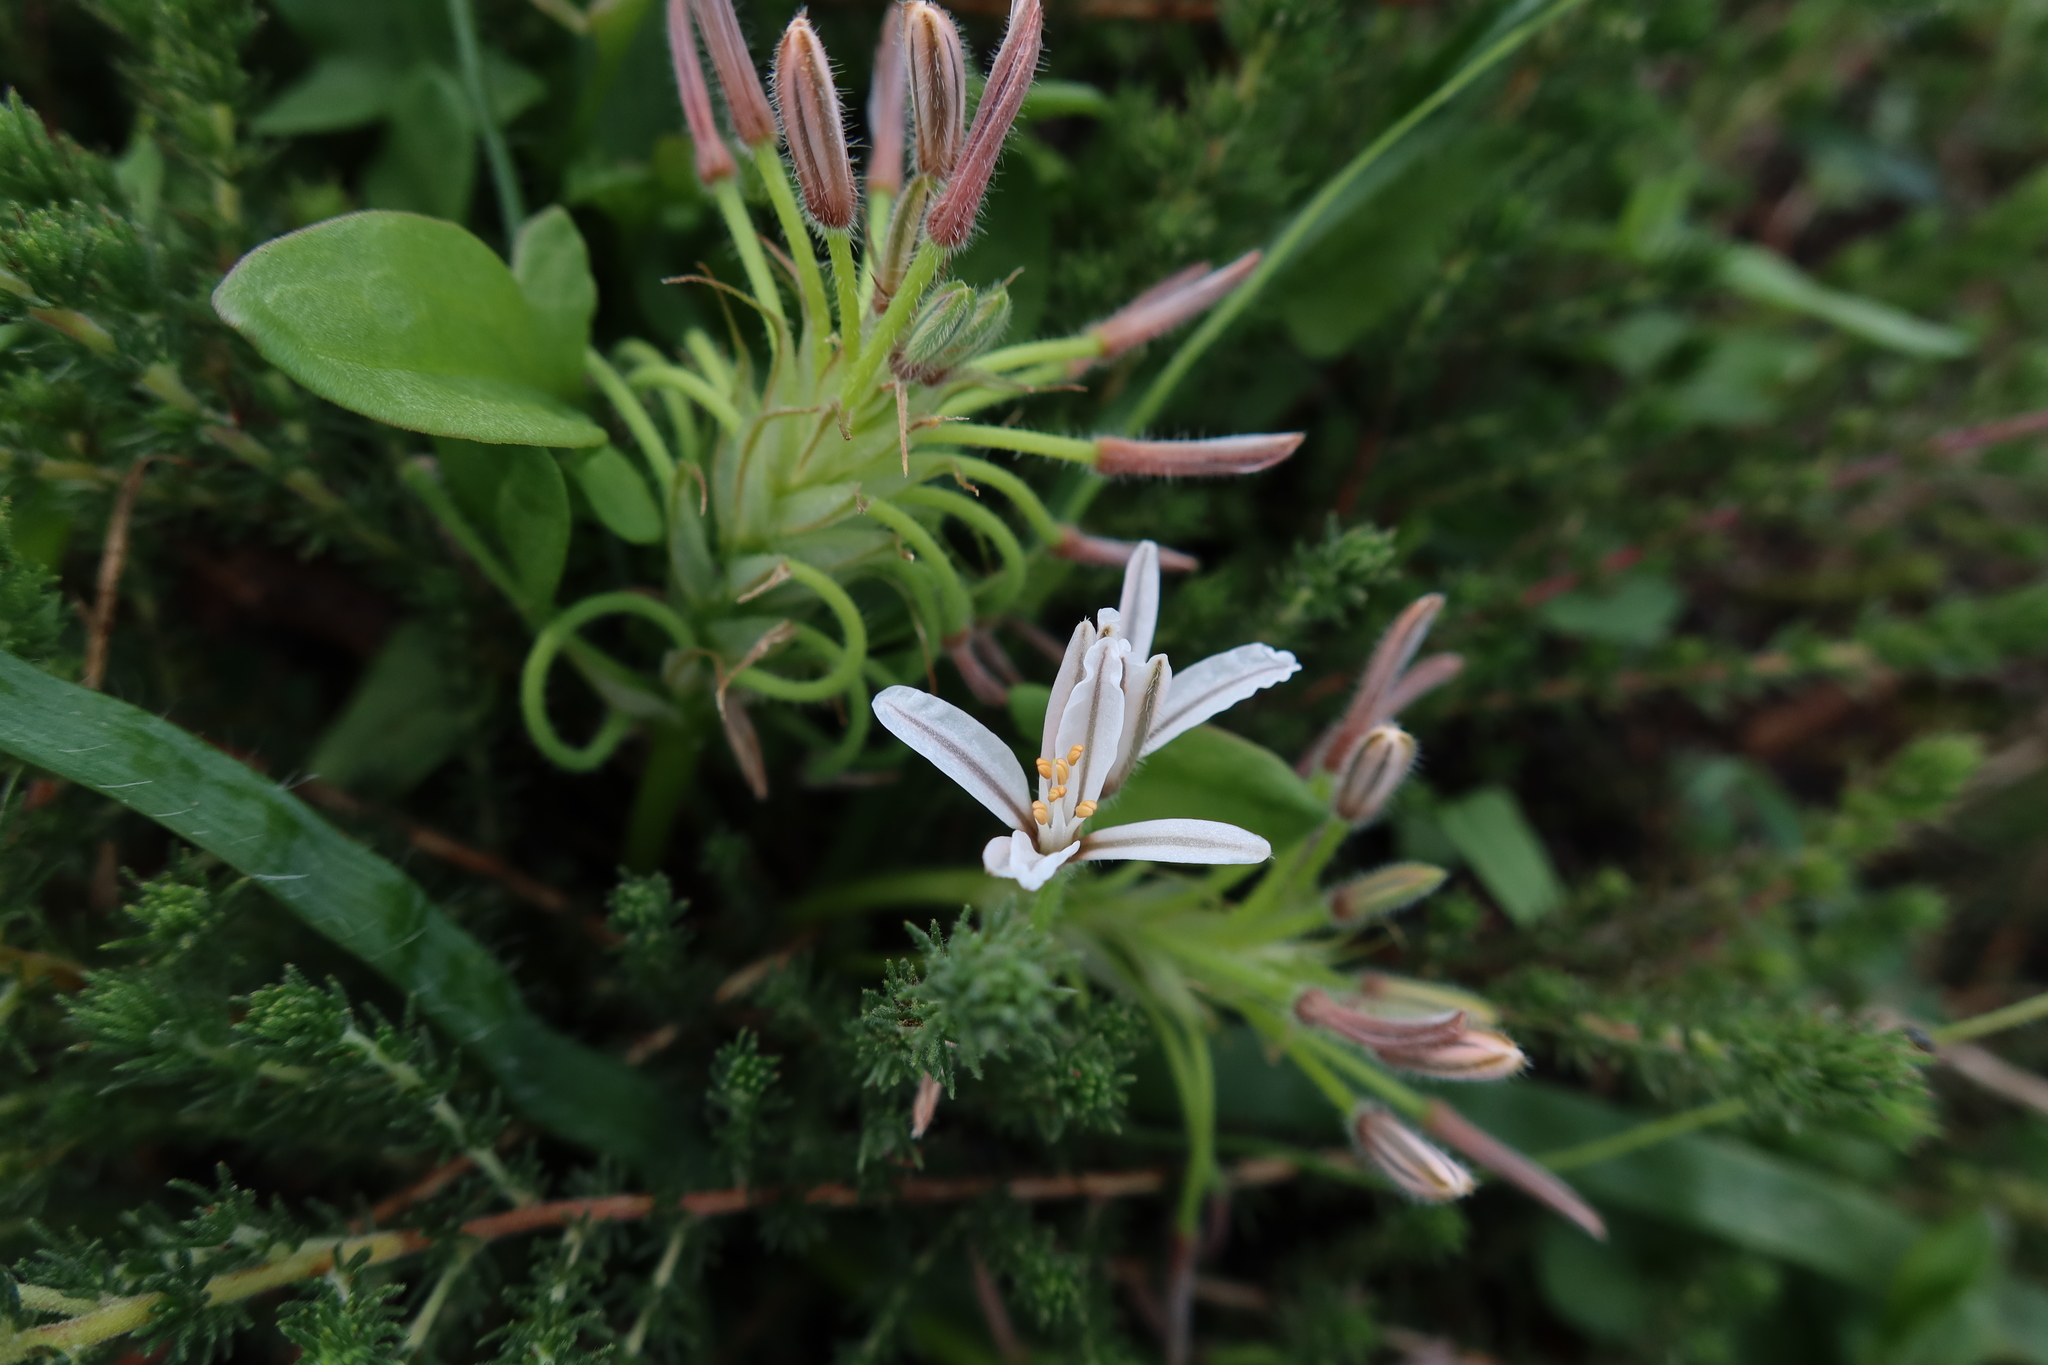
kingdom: Plantae
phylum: Tracheophyta
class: Liliopsida
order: Asparagales
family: Asphodelaceae
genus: Trachyandra
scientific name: Trachyandra hispida
